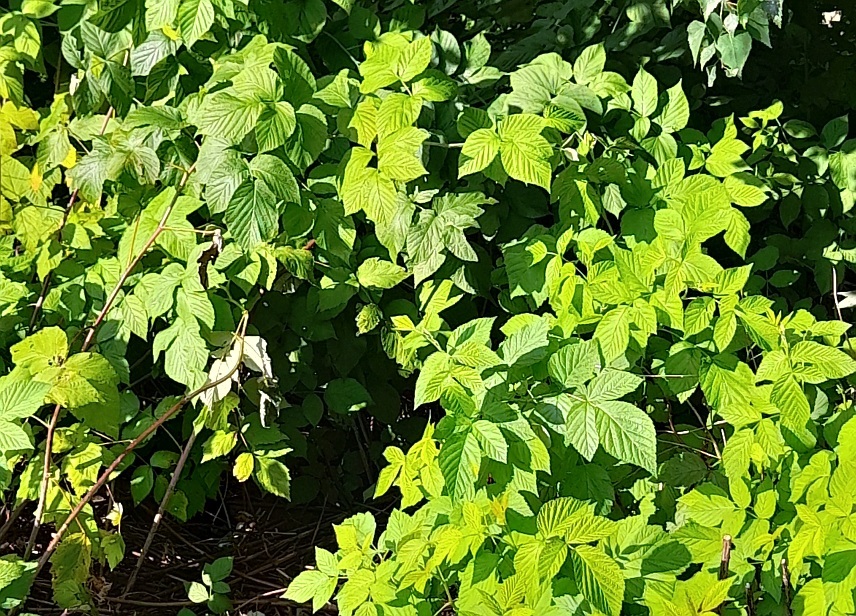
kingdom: Plantae
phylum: Tracheophyta
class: Magnoliopsida
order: Rosales
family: Rosaceae
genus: Rubus
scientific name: Rubus idaeus
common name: Raspberry
